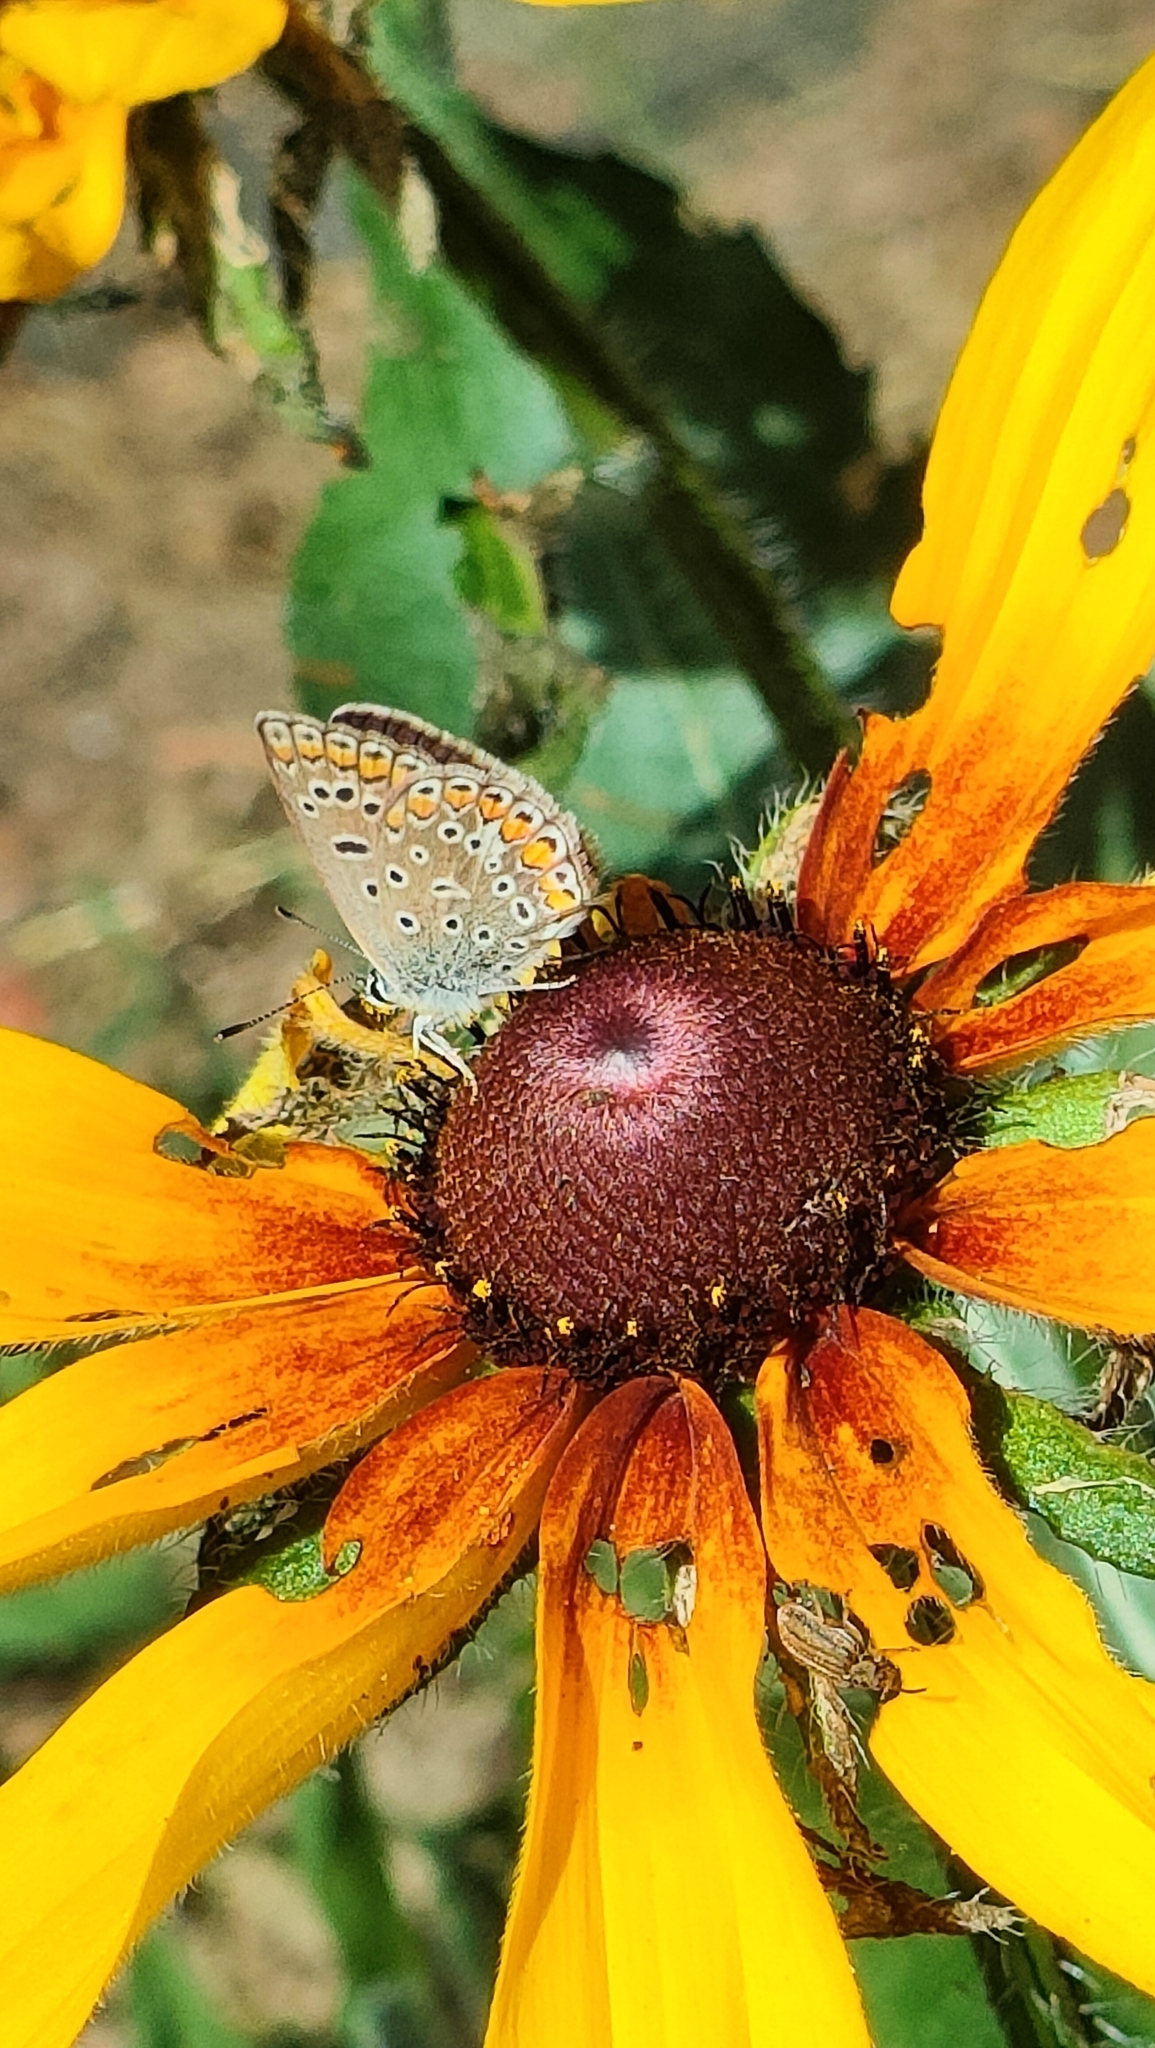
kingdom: Animalia
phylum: Arthropoda
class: Insecta
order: Lepidoptera
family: Lycaenidae
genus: Polyommatus
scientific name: Polyommatus icarus
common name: Common blue
